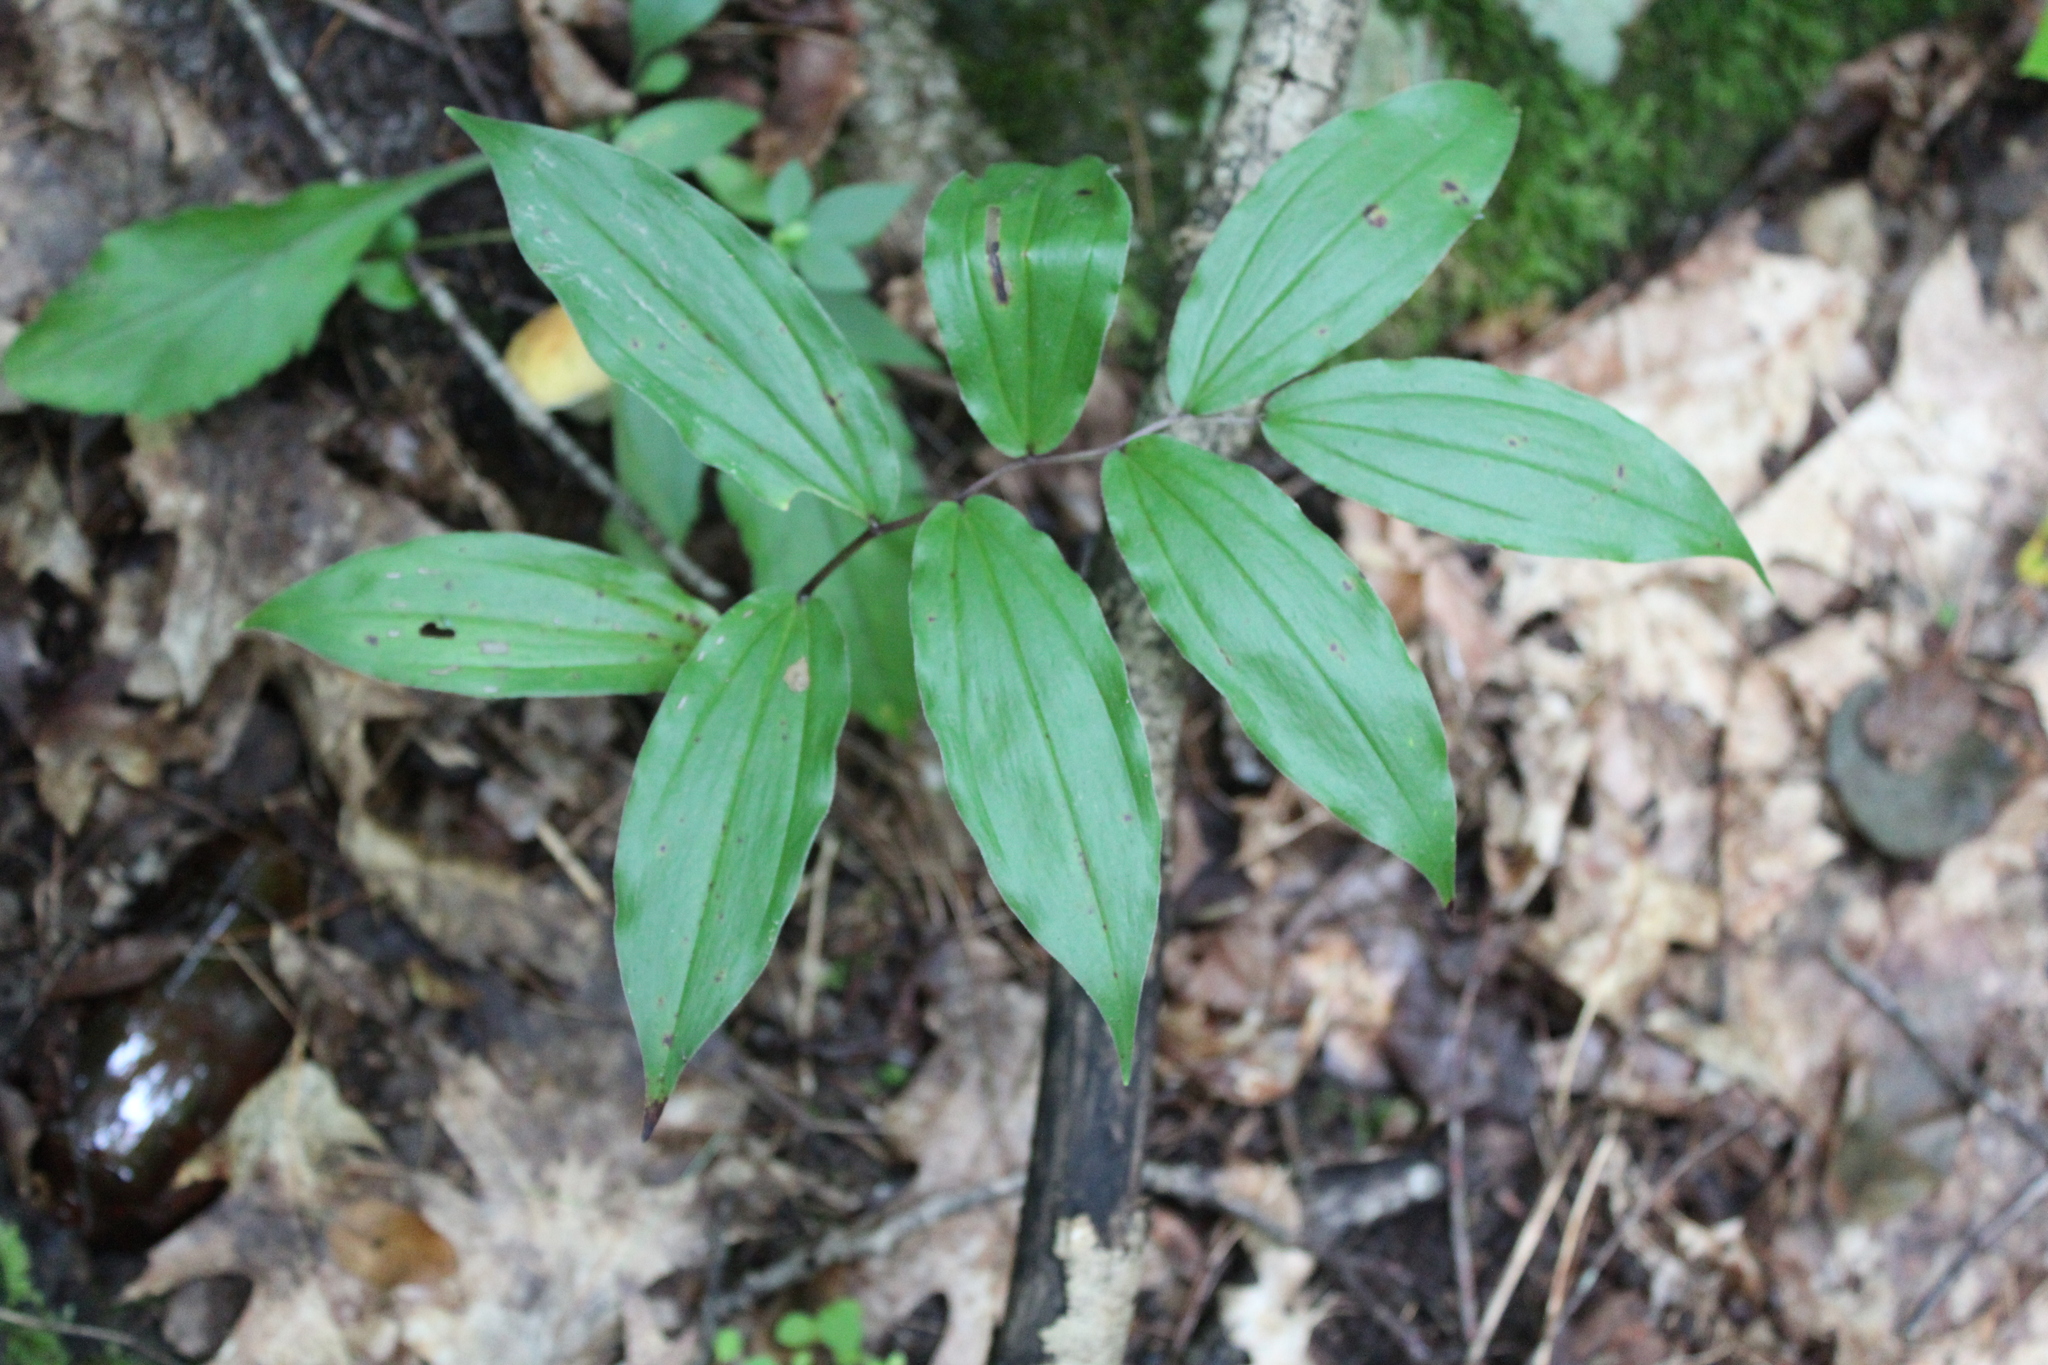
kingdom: Plantae
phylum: Tracheophyta
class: Liliopsida
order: Asparagales
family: Asparagaceae
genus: Maianthemum
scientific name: Maianthemum racemosum
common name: False spikenard
